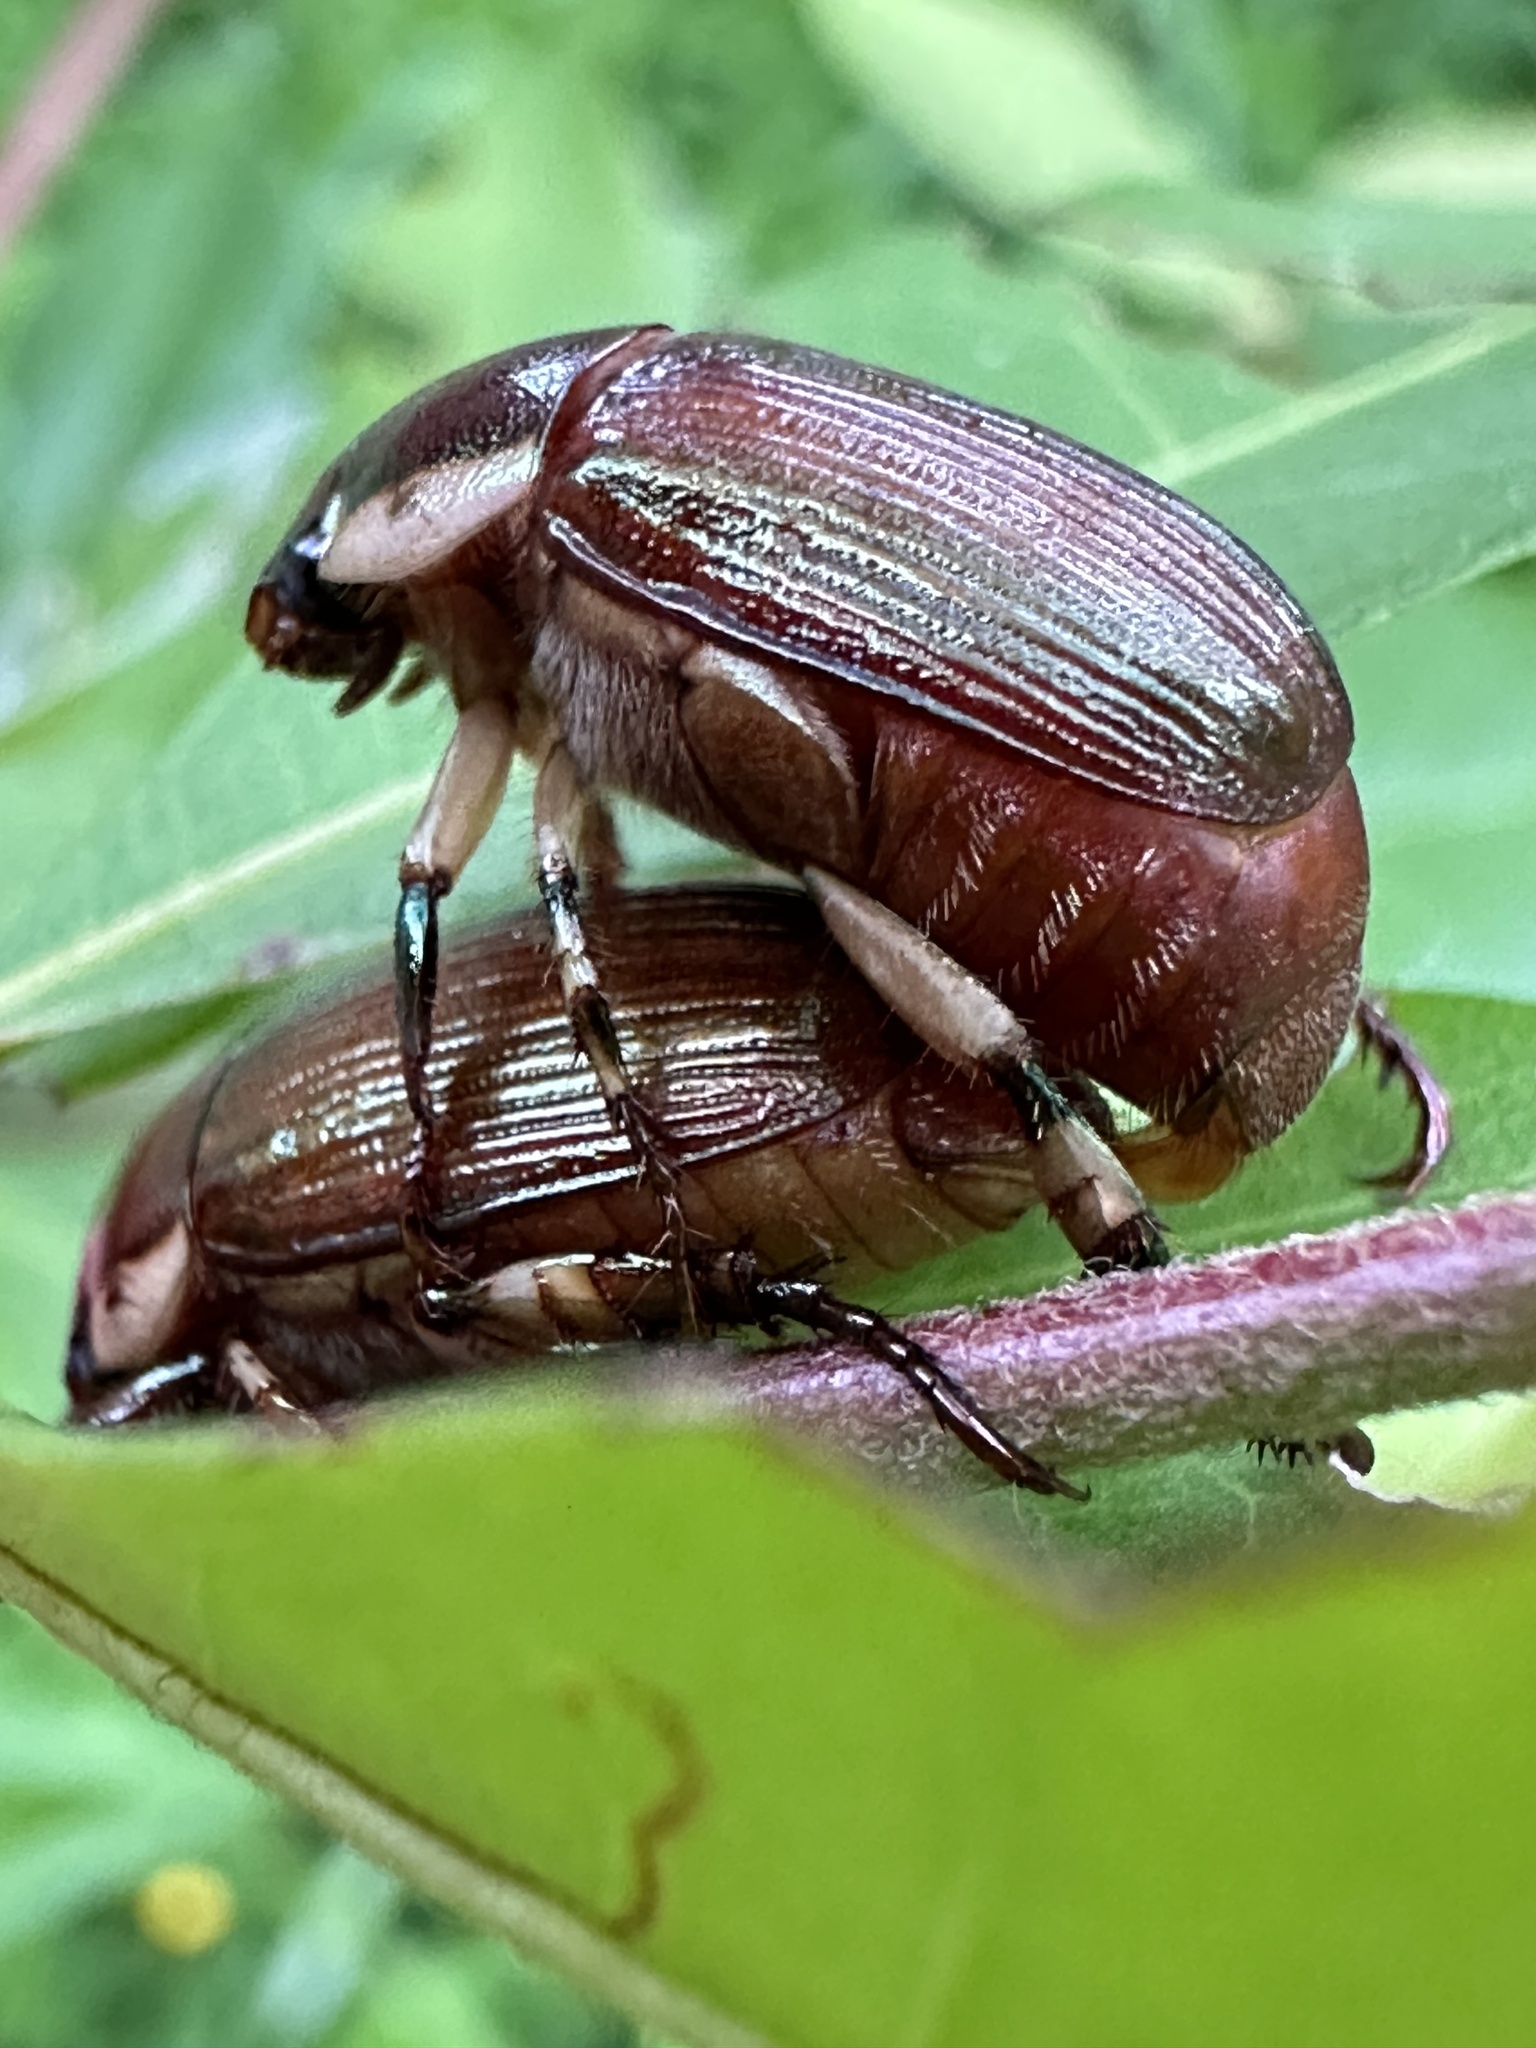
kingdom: Animalia
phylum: Arthropoda
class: Insecta
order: Coleoptera
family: Scarabaeidae
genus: Callistethus
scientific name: Callistethus marginatus
